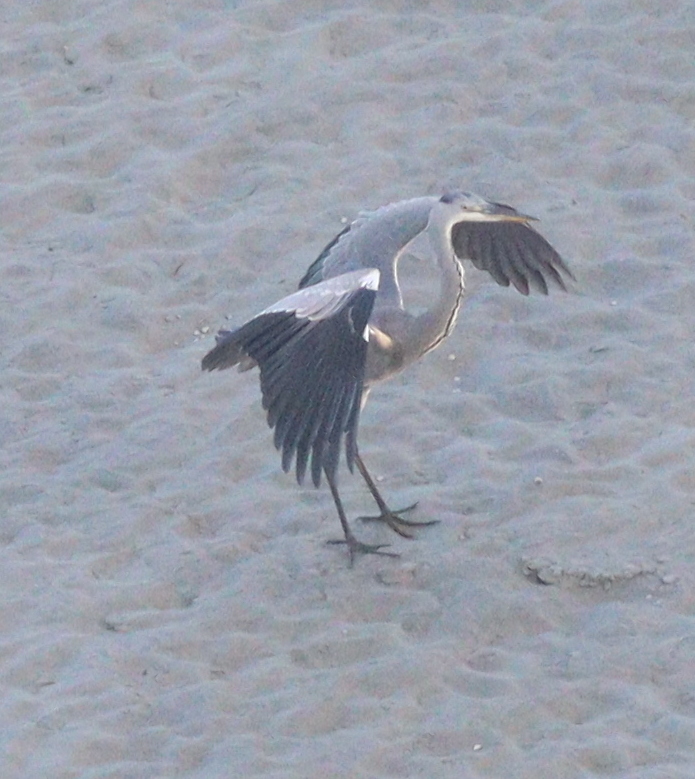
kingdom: Animalia
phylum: Chordata
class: Aves
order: Pelecaniformes
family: Ardeidae
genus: Ardea
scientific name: Ardea cinerea
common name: Grey heron
